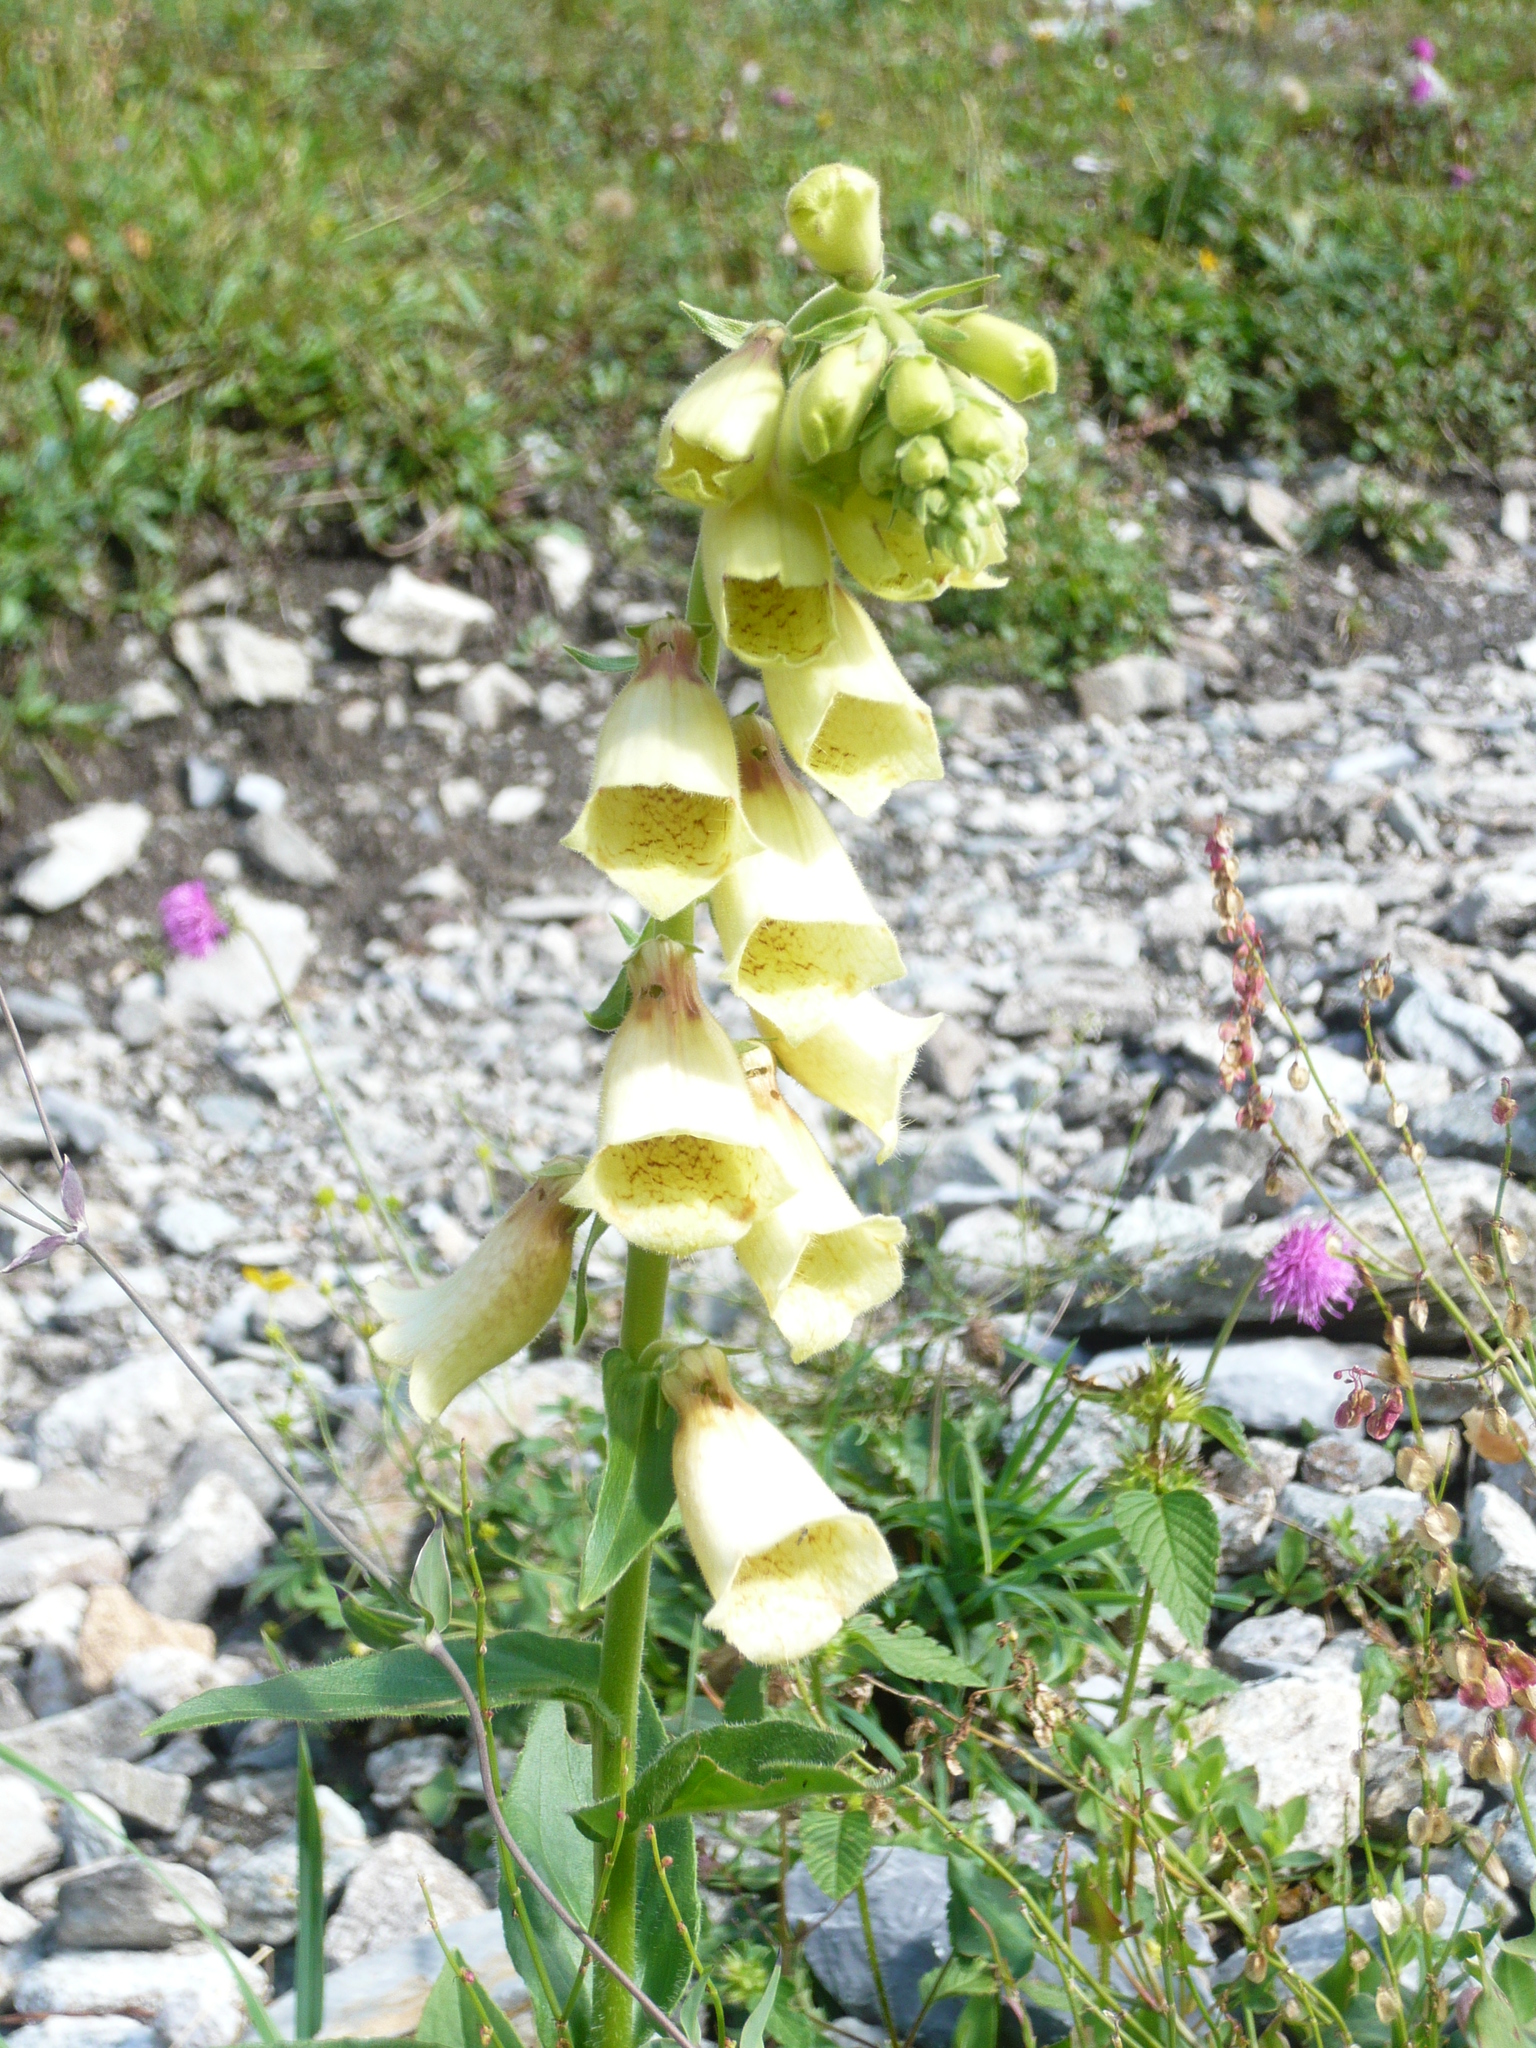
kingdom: Plantae
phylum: Tracheophyta
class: Magnoliopsida
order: Lamiales
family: Plantaginaceae
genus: Digitalis
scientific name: Digitalis grandiflora
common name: Yellow foxglove
